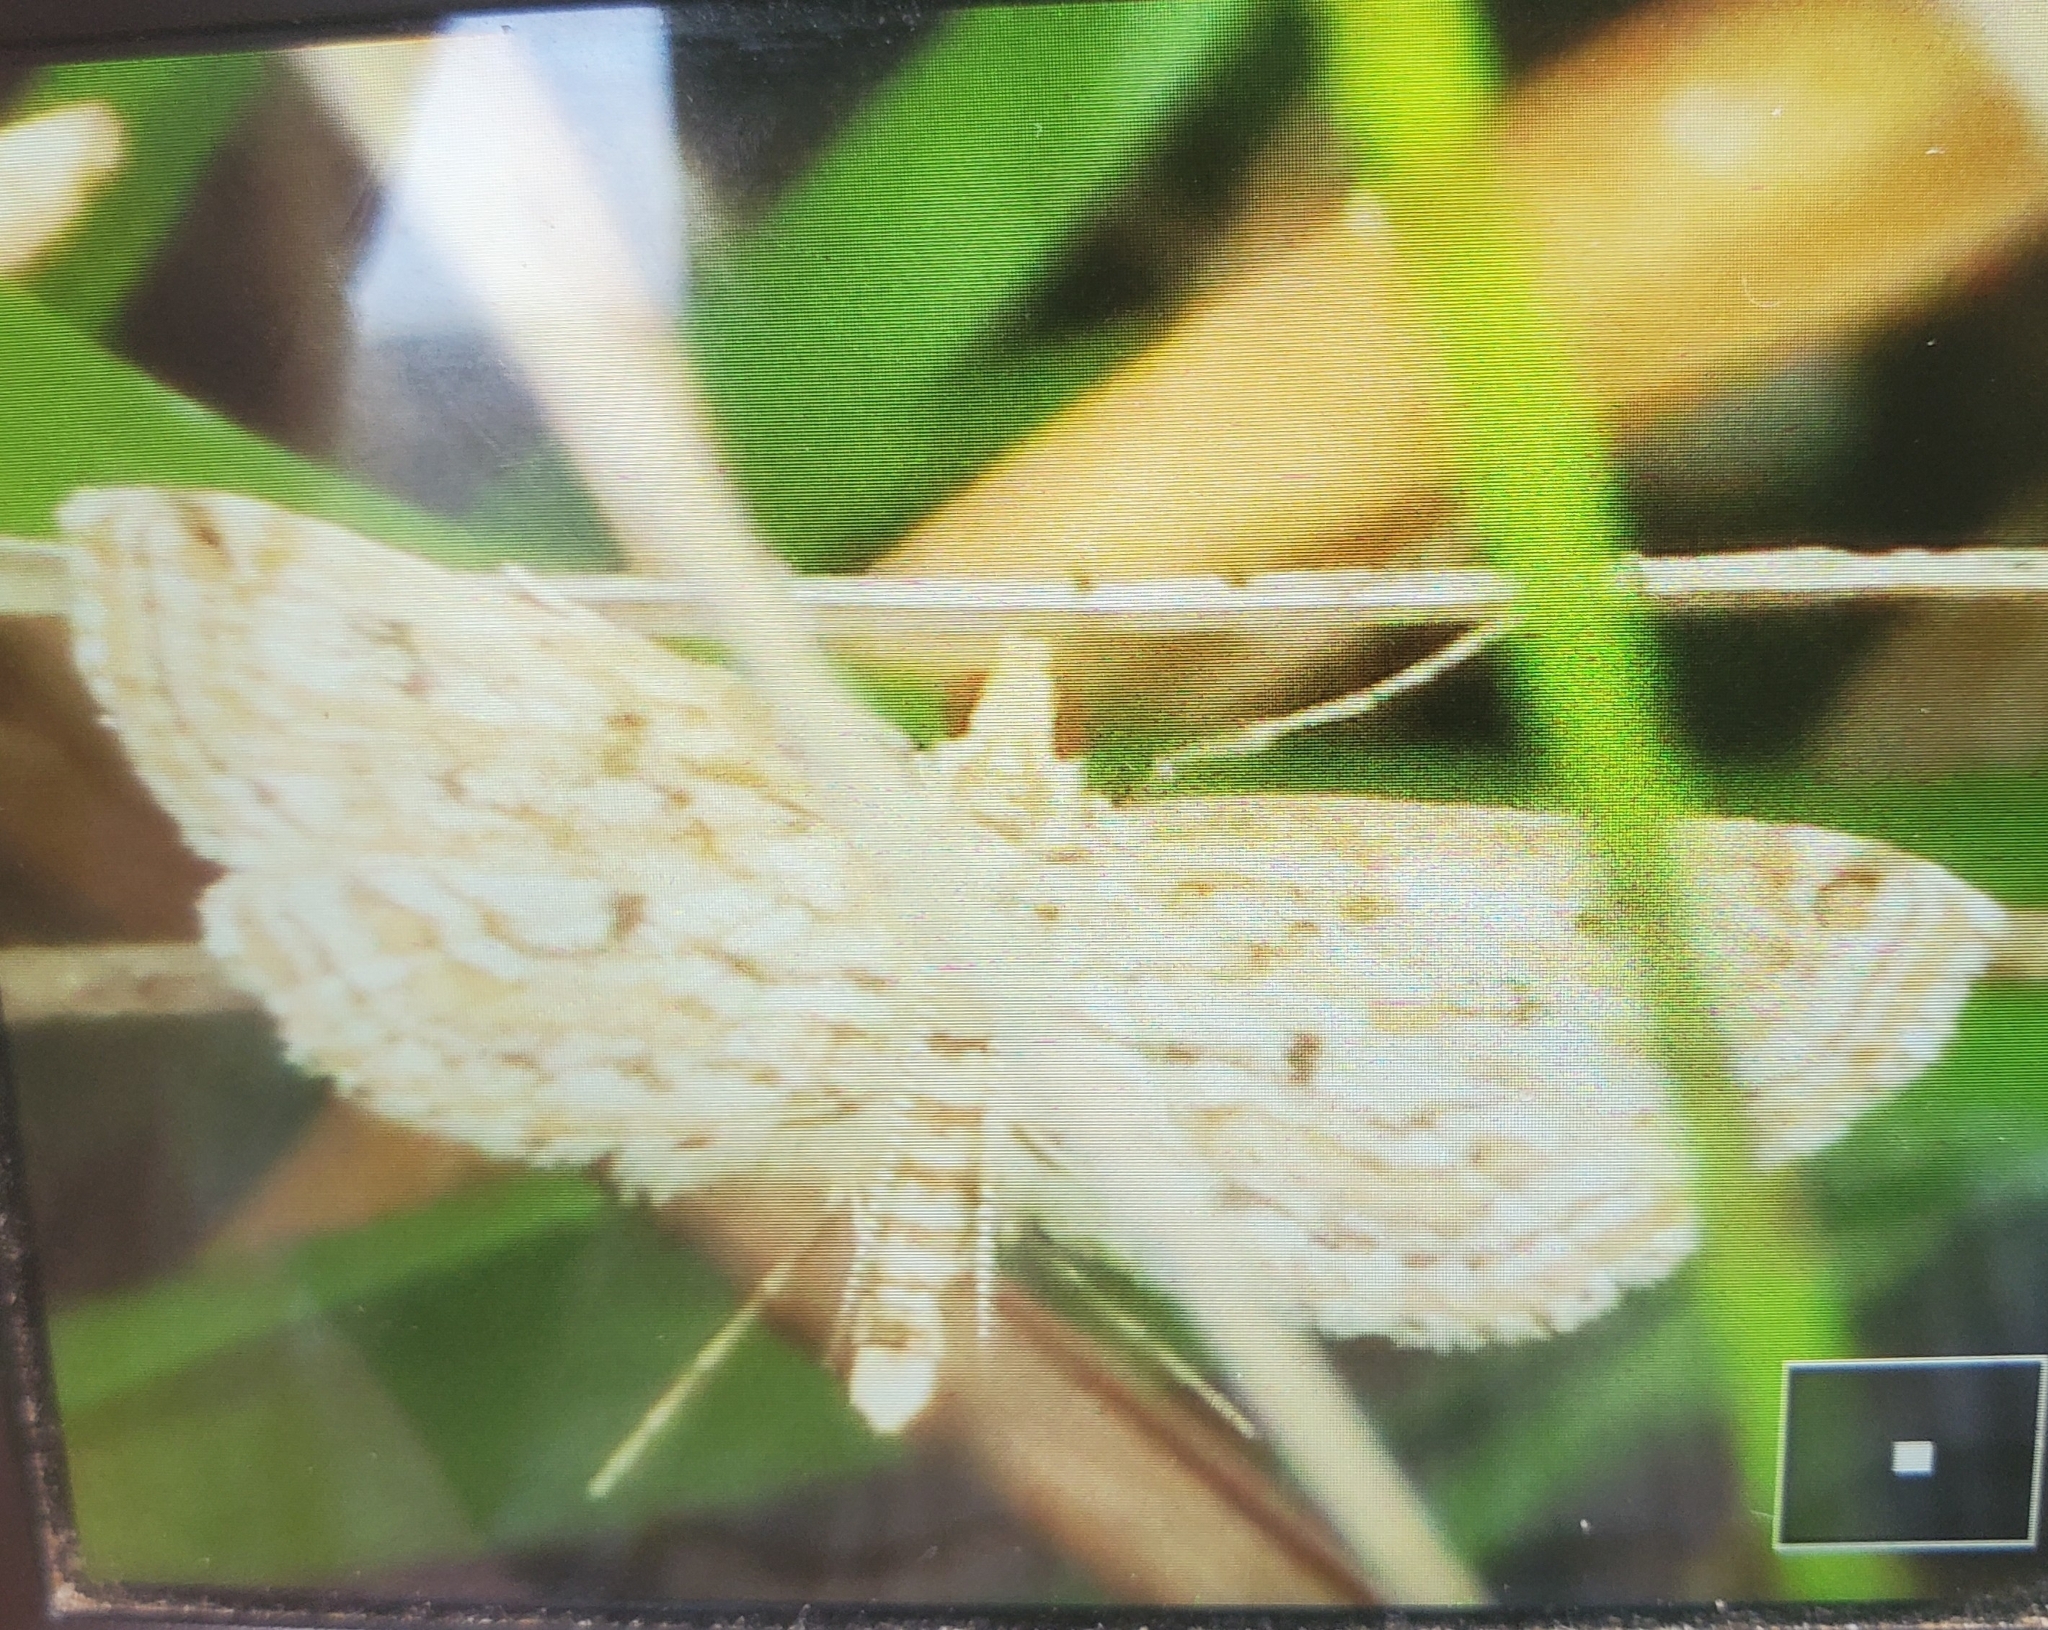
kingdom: Animalia
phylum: Arthropoda
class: Insecta
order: Lepidoptera
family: Crambidae
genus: Parapoynx
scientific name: Parapoynx allionealis
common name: Bladderwort casemaker
